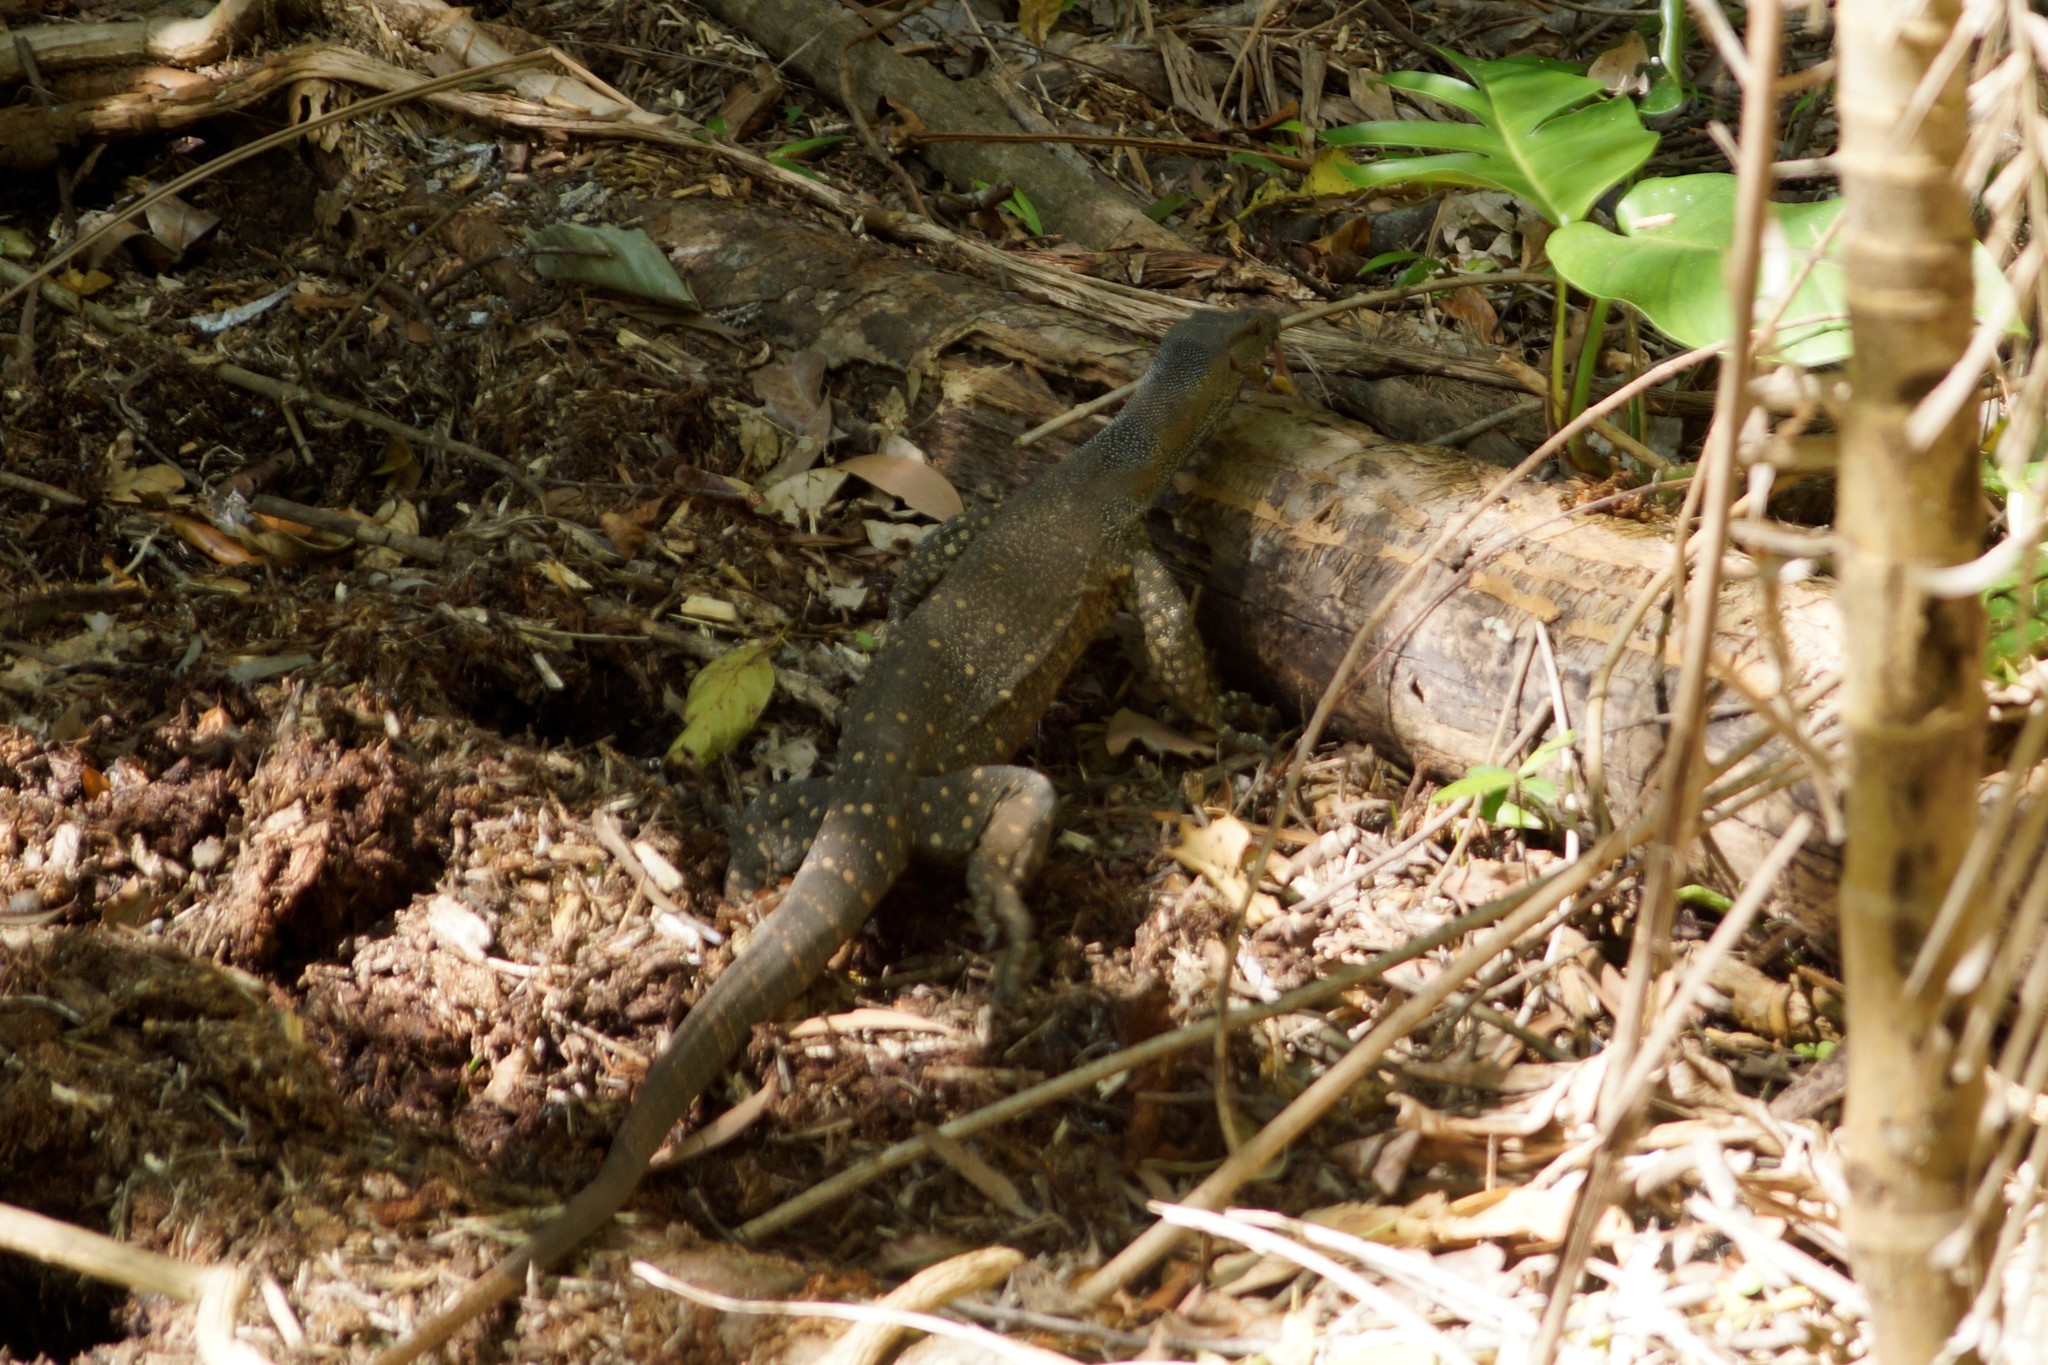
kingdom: Animalia
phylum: Chordata
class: Squamata
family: Varanidae
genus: Varanus
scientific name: Varanus varius
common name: Lace monitor
